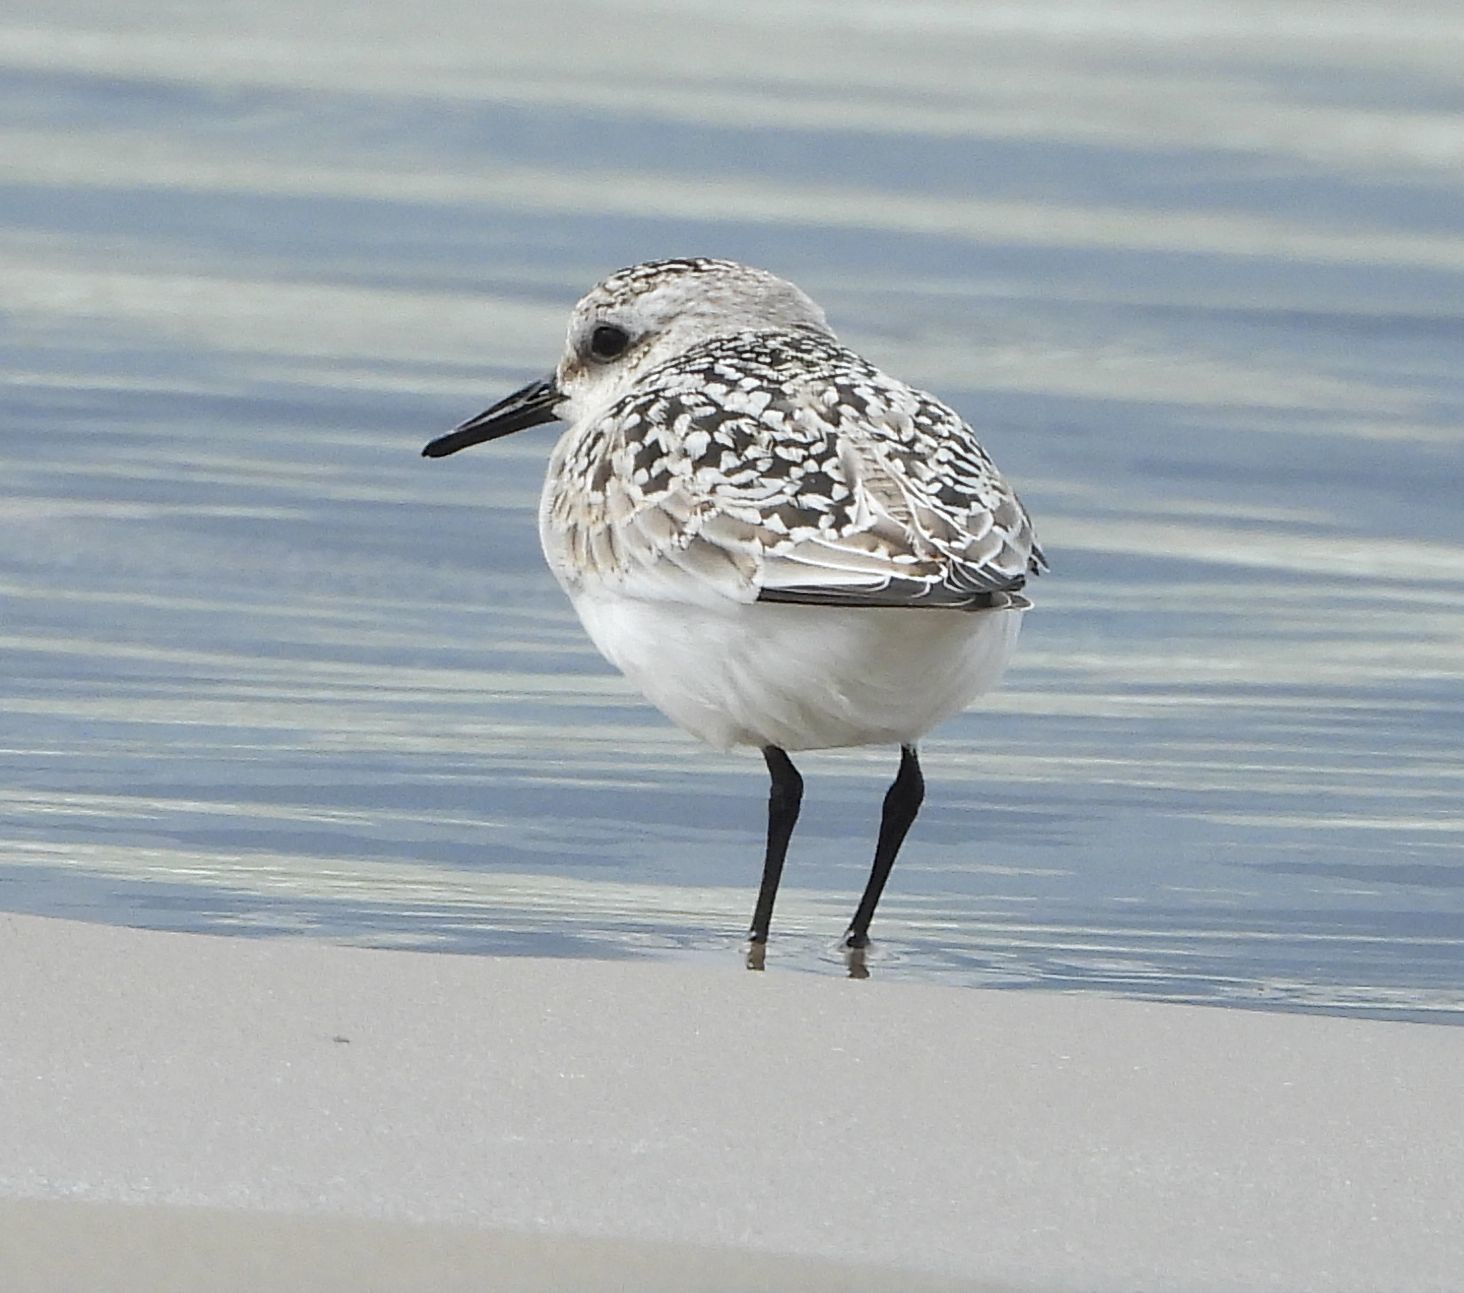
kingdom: Animalia
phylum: Chordata
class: Aves
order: Charadriiformes
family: Scolopacidae
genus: Calidris
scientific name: Calidris alba
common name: Sanderling
